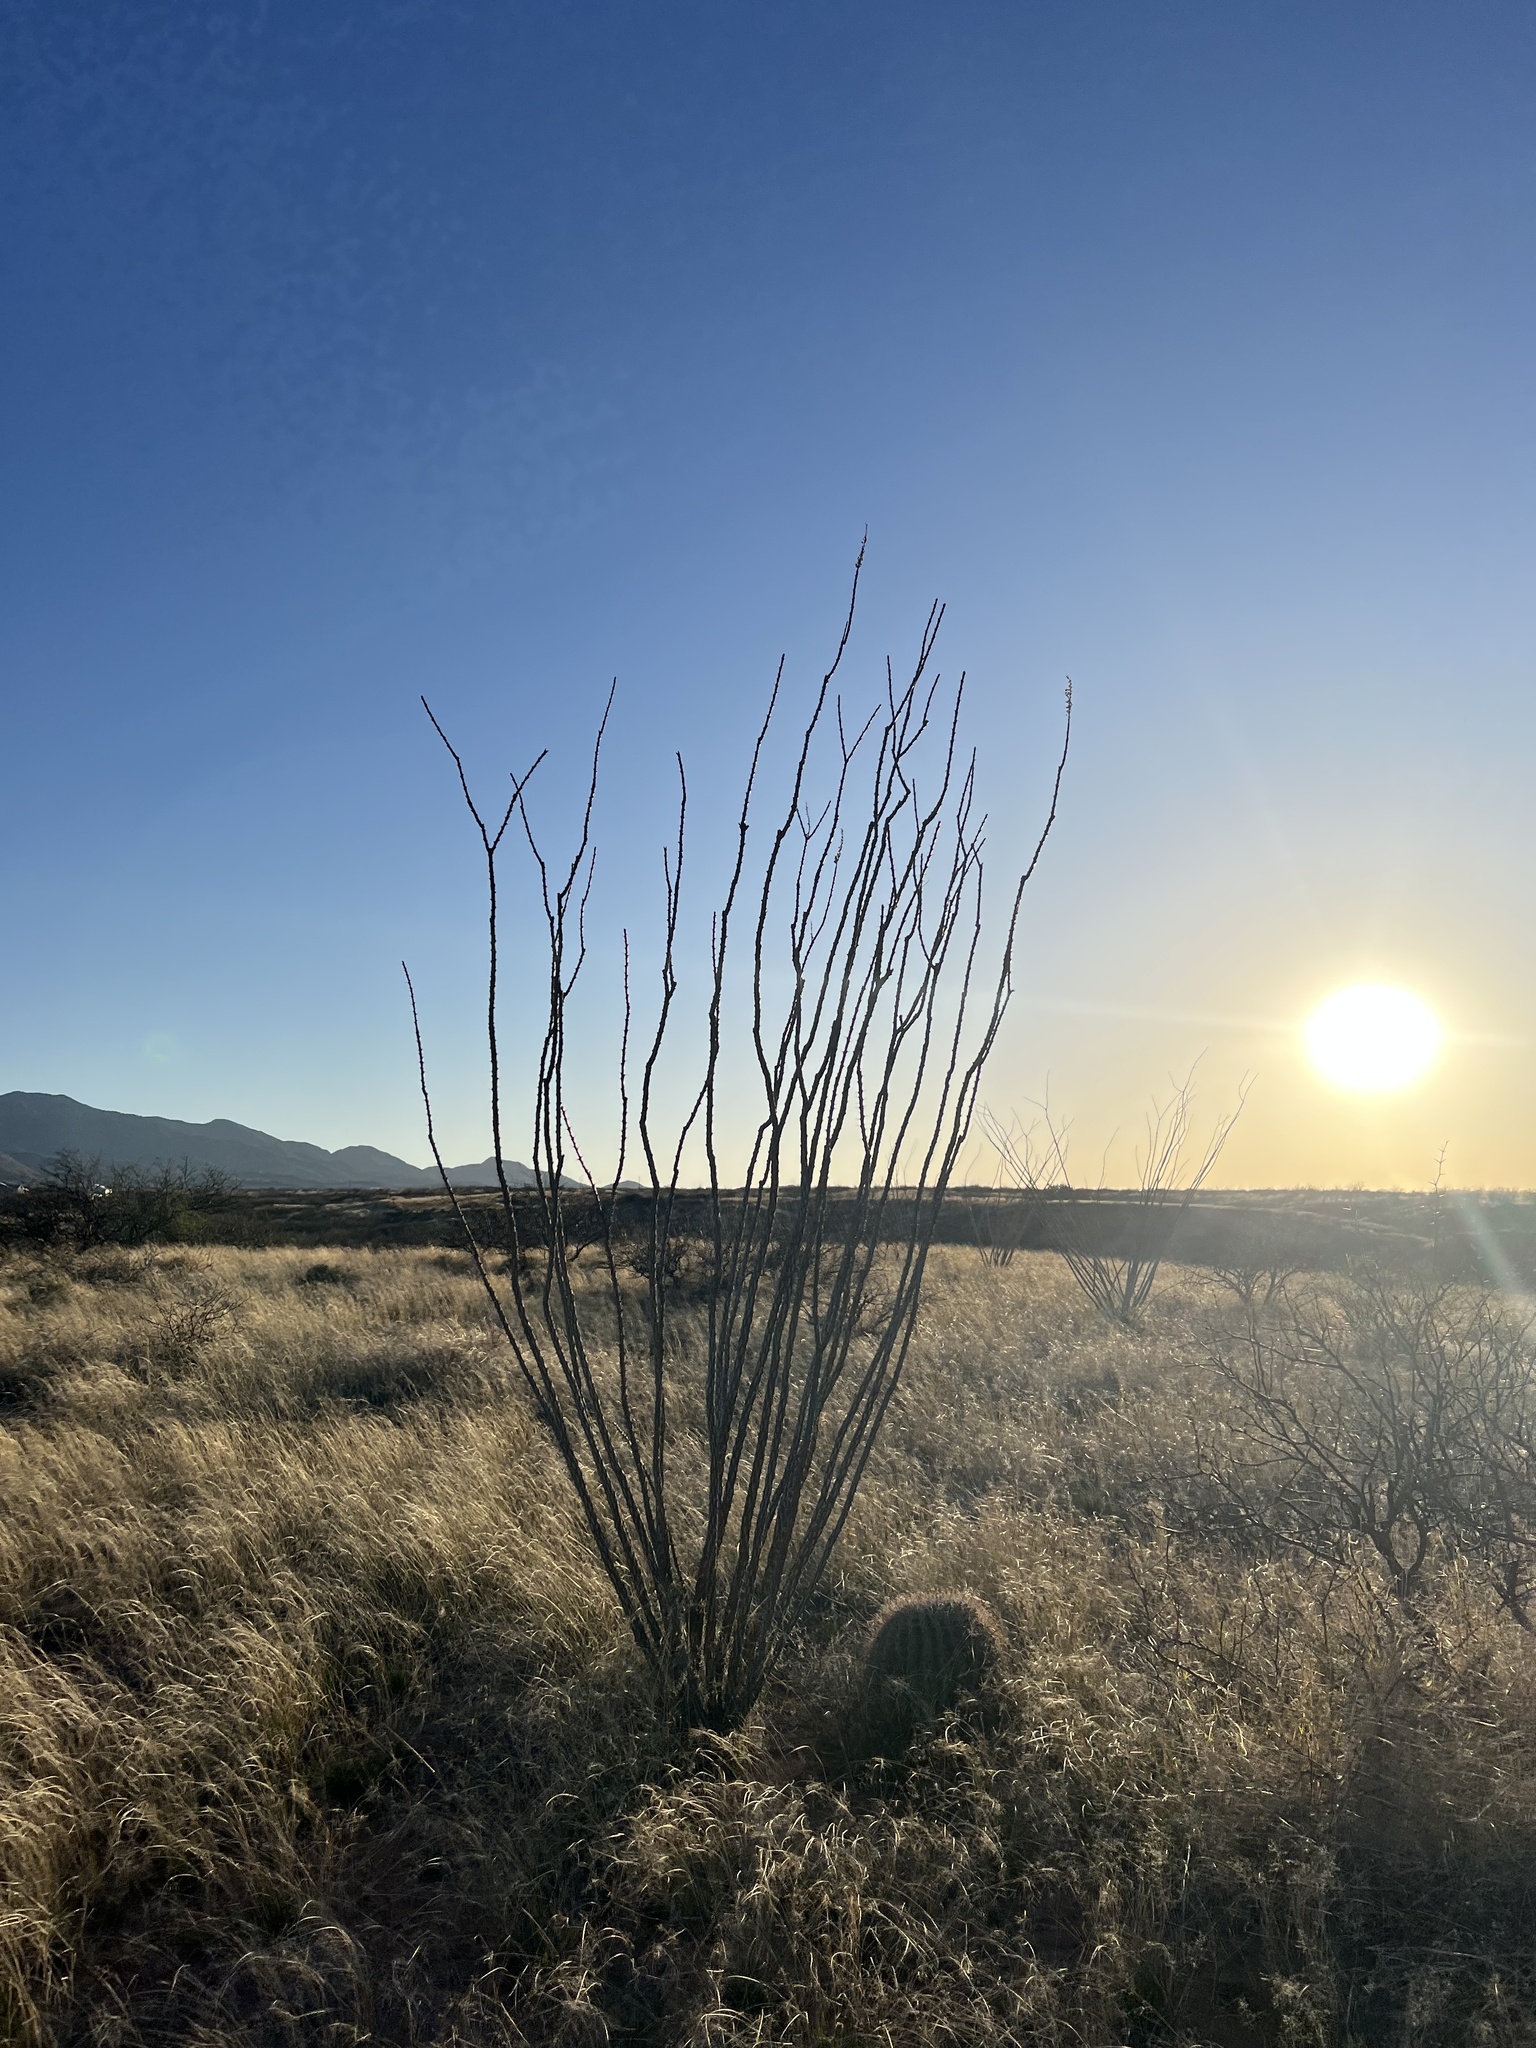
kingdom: Plantae
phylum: Tracheophyta
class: Magnoliopsida
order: Ericales
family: Fouquieriaceae
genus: Fouquieria
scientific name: Fouquieria splendens
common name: Vine-cactus
